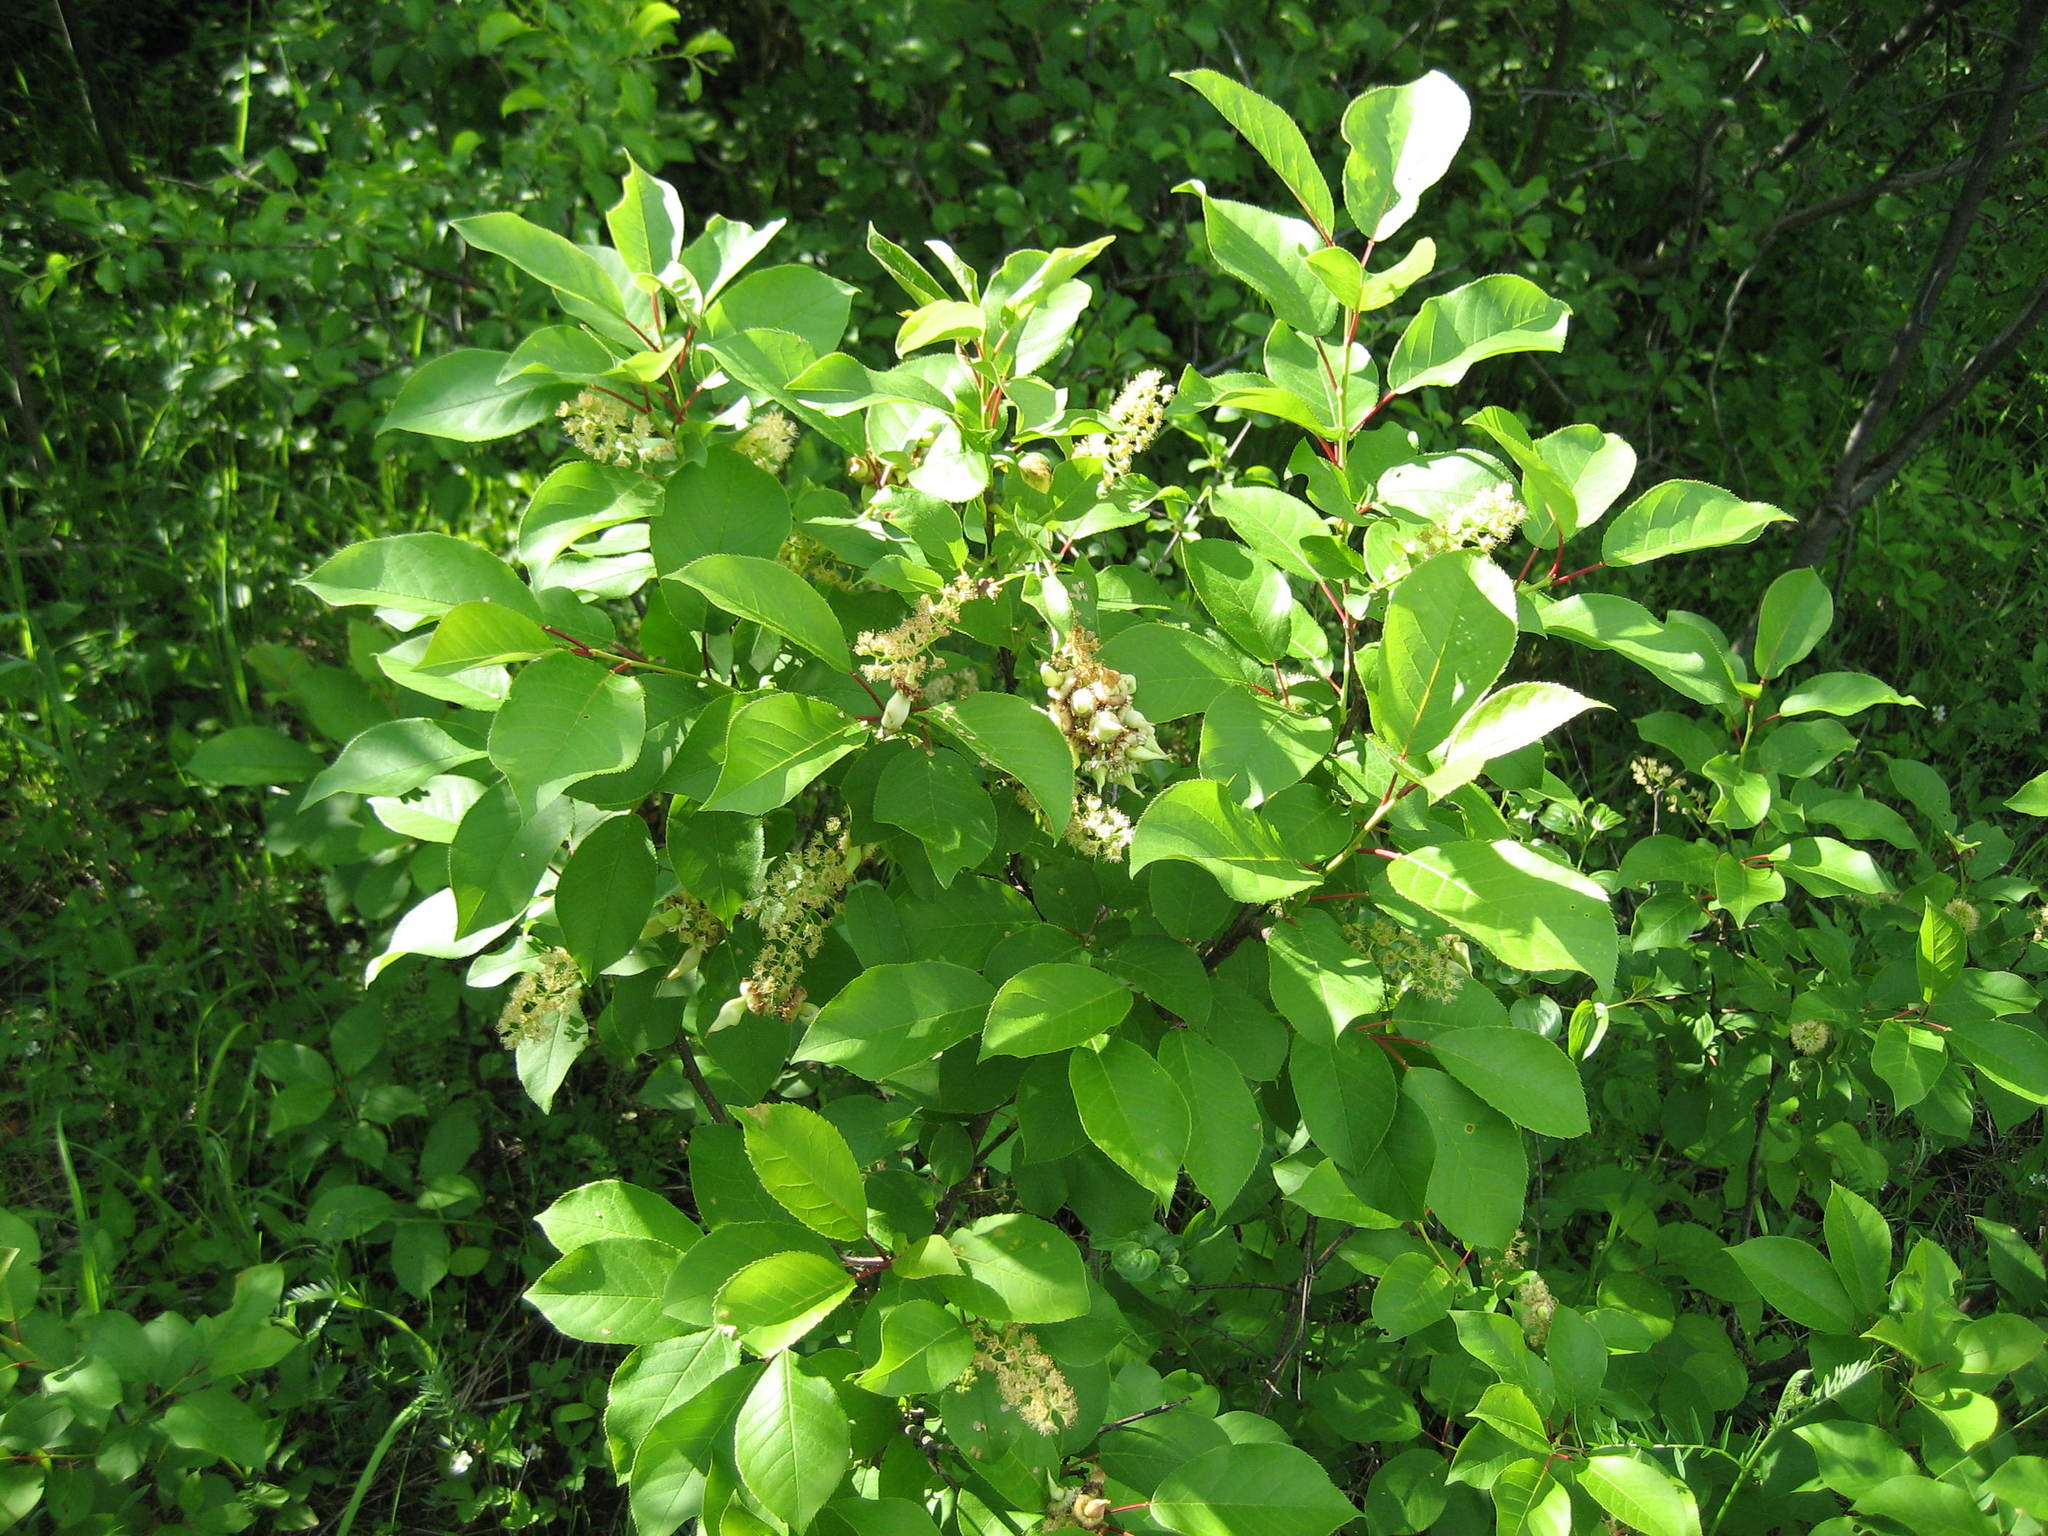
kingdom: Plantae
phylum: Tracheophyta
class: Magnoliopsida
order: Rosales
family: Rosaceae
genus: Prunus
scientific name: Prunus virginiana
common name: Chokecherry
